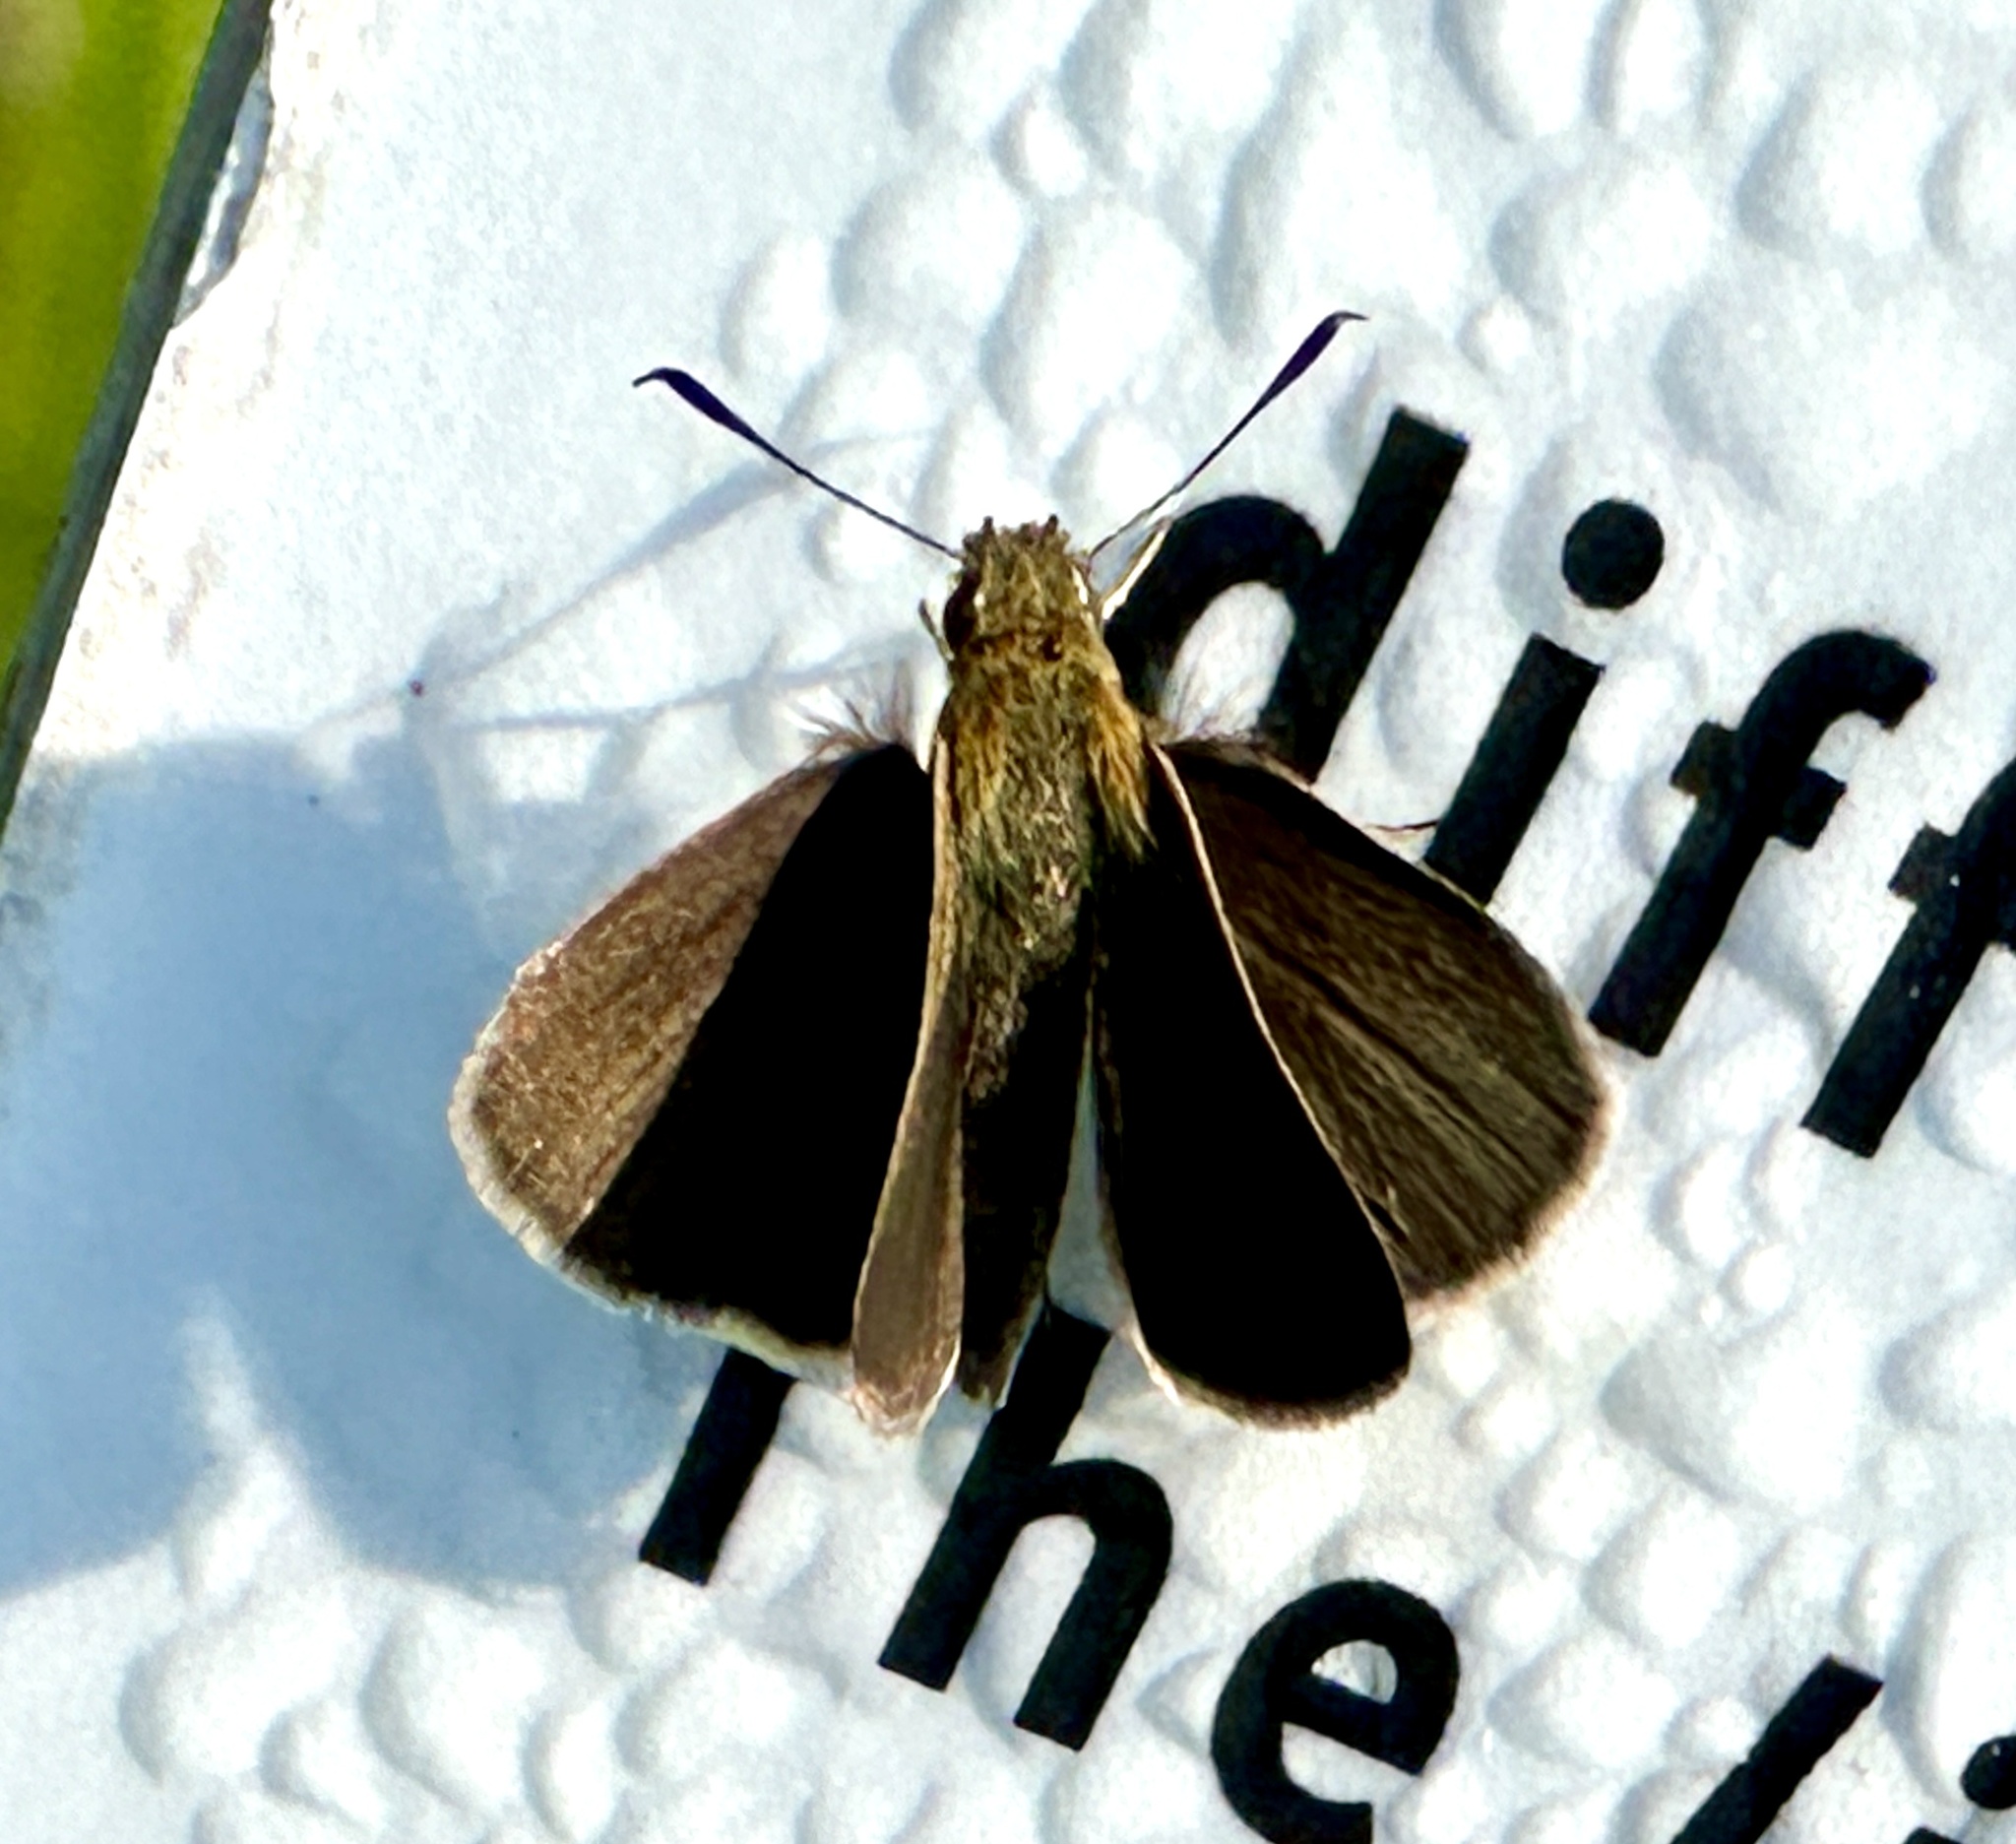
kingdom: Animalia
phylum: Arthropoda
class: Insecta
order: Lepidoptera
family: Hesperiidae
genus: Nastra
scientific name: Nastra lherminier
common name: Swarthy skipper
